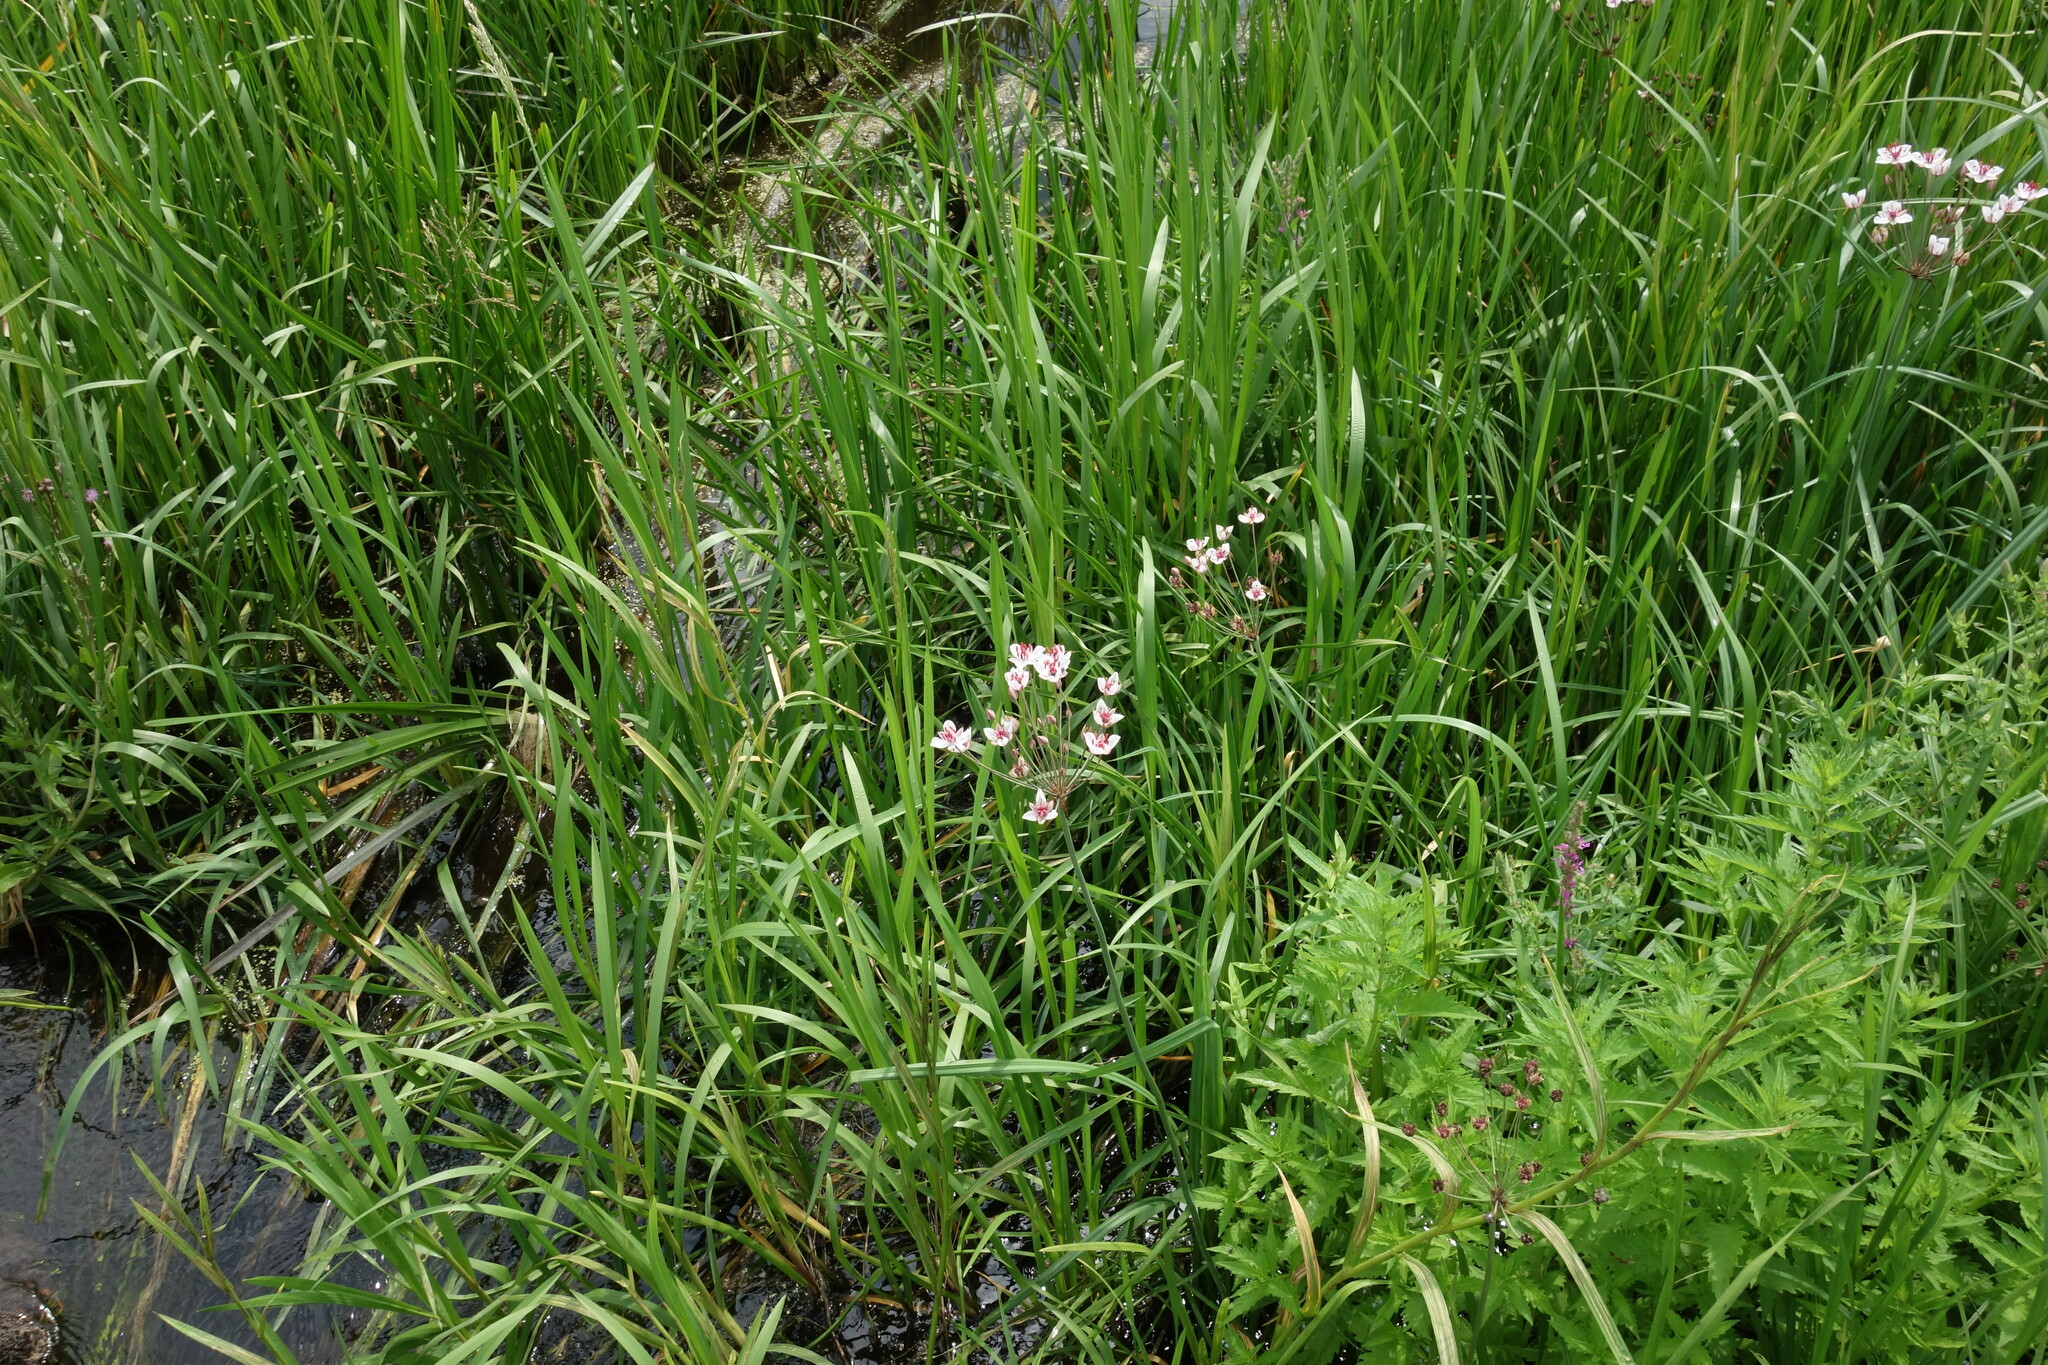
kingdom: Plantae
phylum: Tracheophyta
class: Liliopsida
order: Alismatales
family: Butomaceae
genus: Butomus
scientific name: Butomus umbellatus
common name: Flowering-rush
